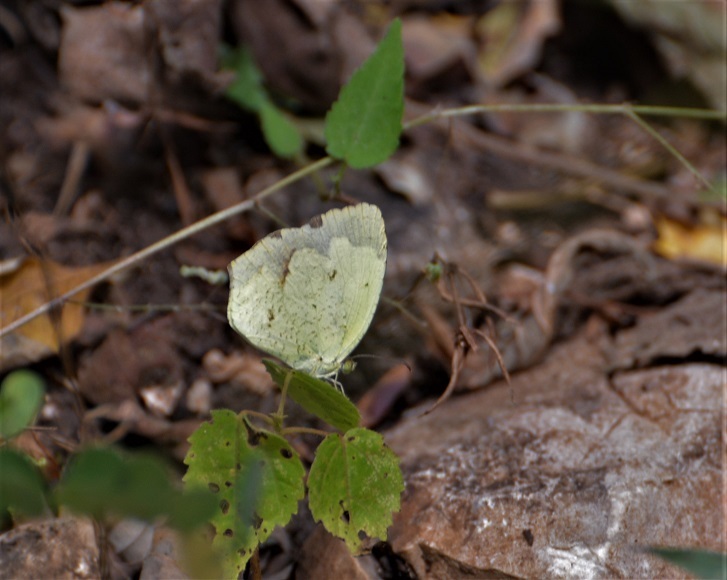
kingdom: Animalia
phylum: Arthropoda
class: Insecta
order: Lepidoptera
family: Pieridae
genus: Abaeis
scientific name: Abaeis mexicana
